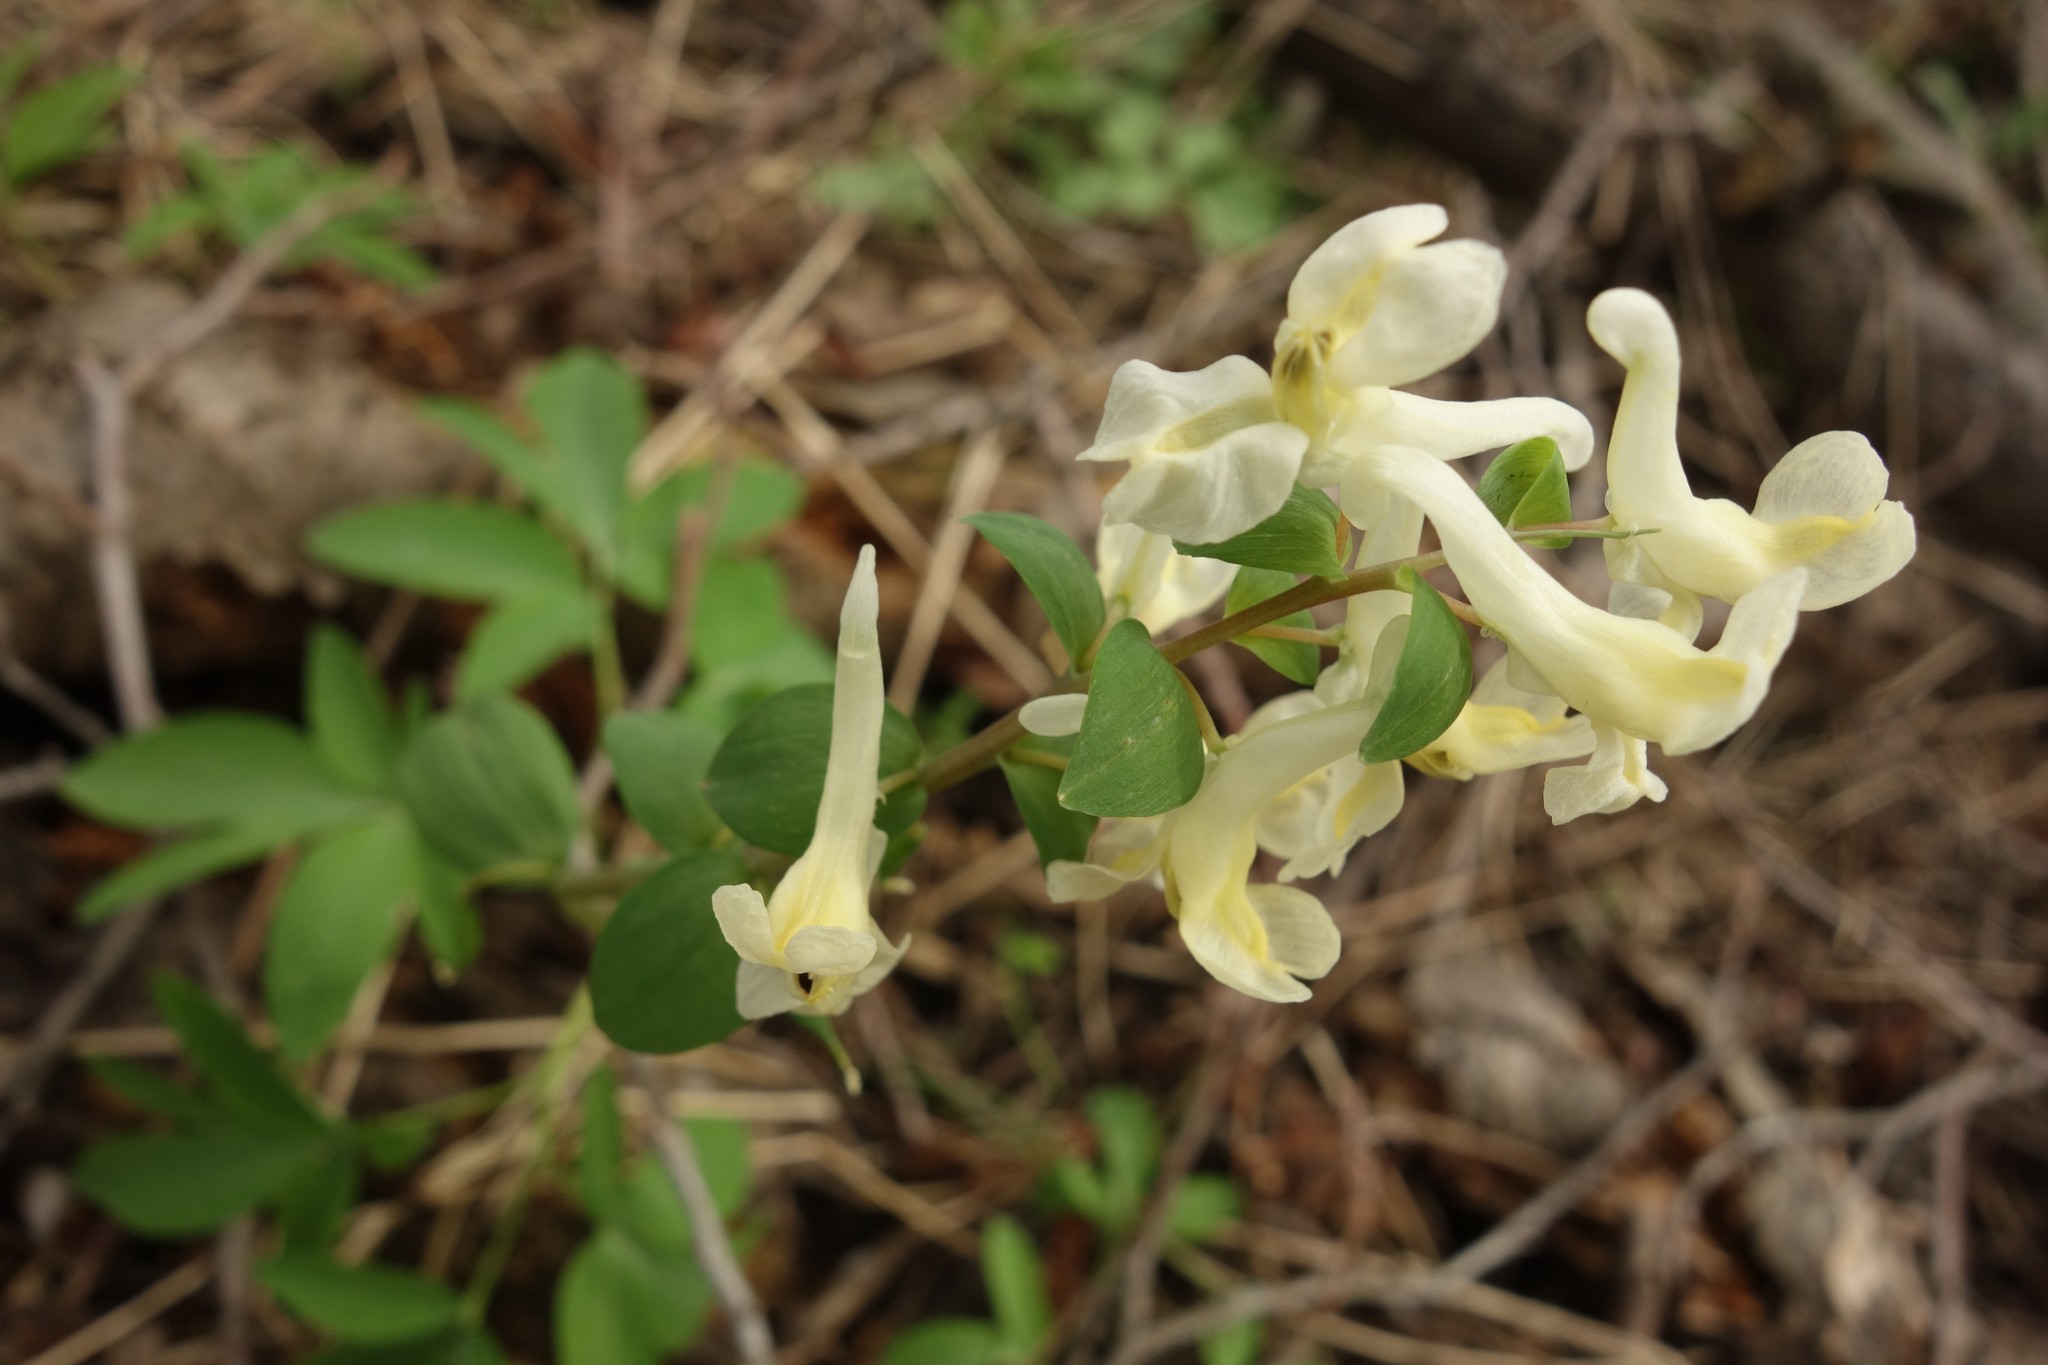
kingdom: Plantae
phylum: Tracheophyta
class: Magnoliopsida
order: Ranunculales
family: Papaveraceae
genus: Corydalis
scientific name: Corydalis cava
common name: Hollowroot
